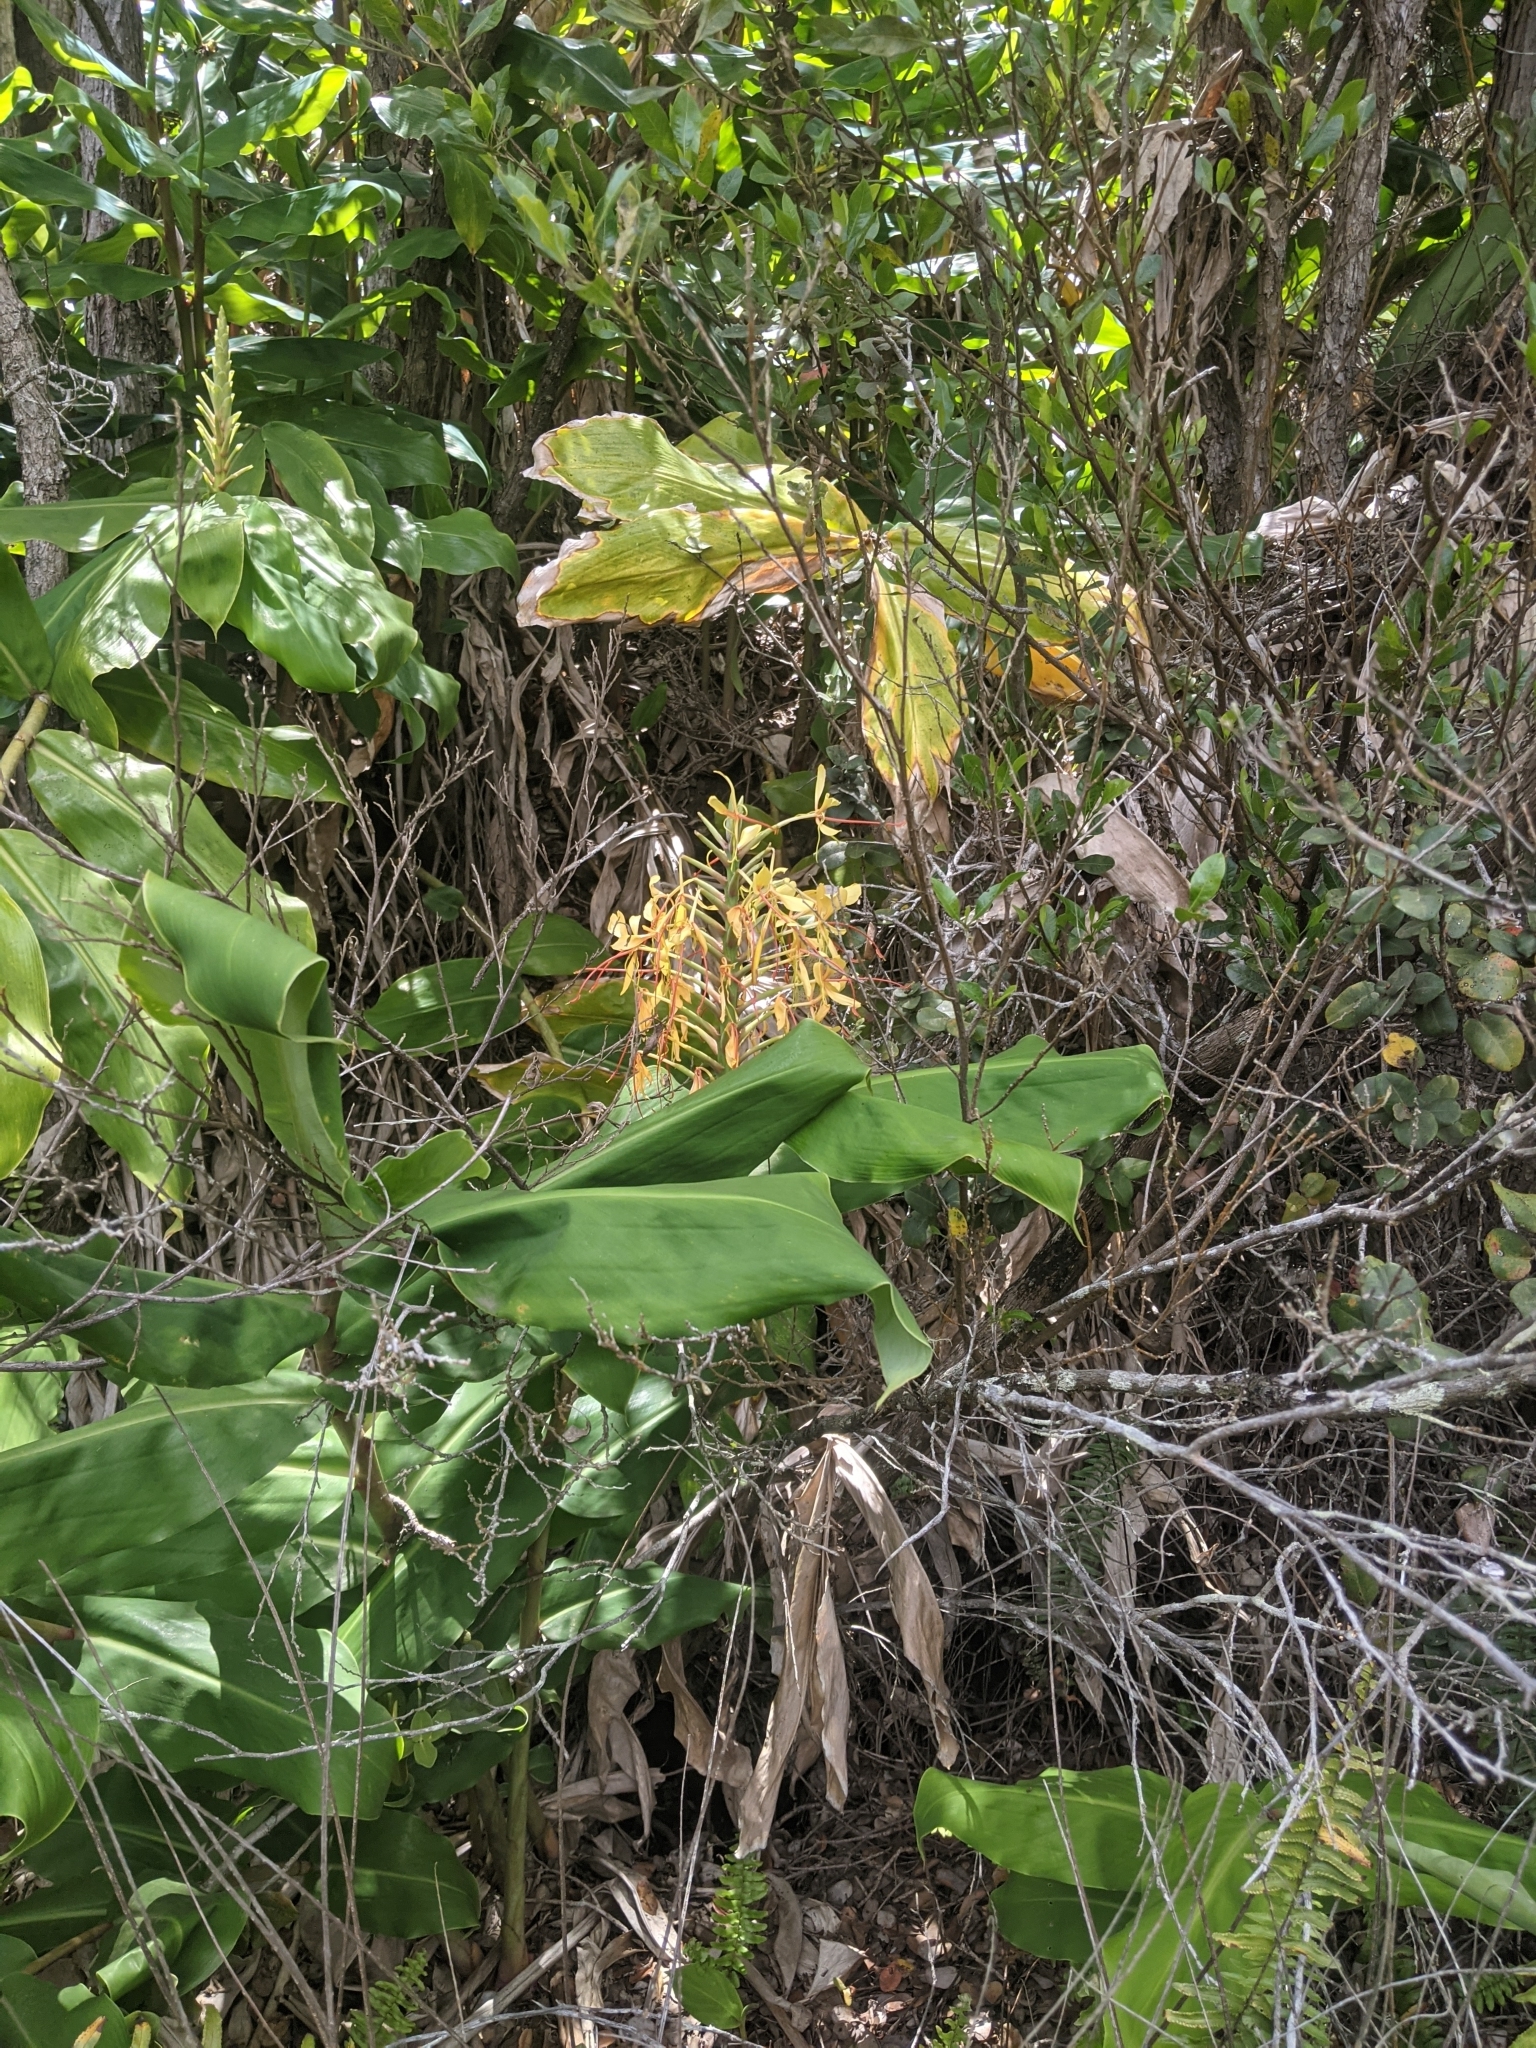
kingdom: Plantae
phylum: Tracheophyta
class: Liliopsida
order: Zingiberales
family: Zingiberaceae
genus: Hedychium
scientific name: Hedychium gardnerianum
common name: Himalayan ginger
